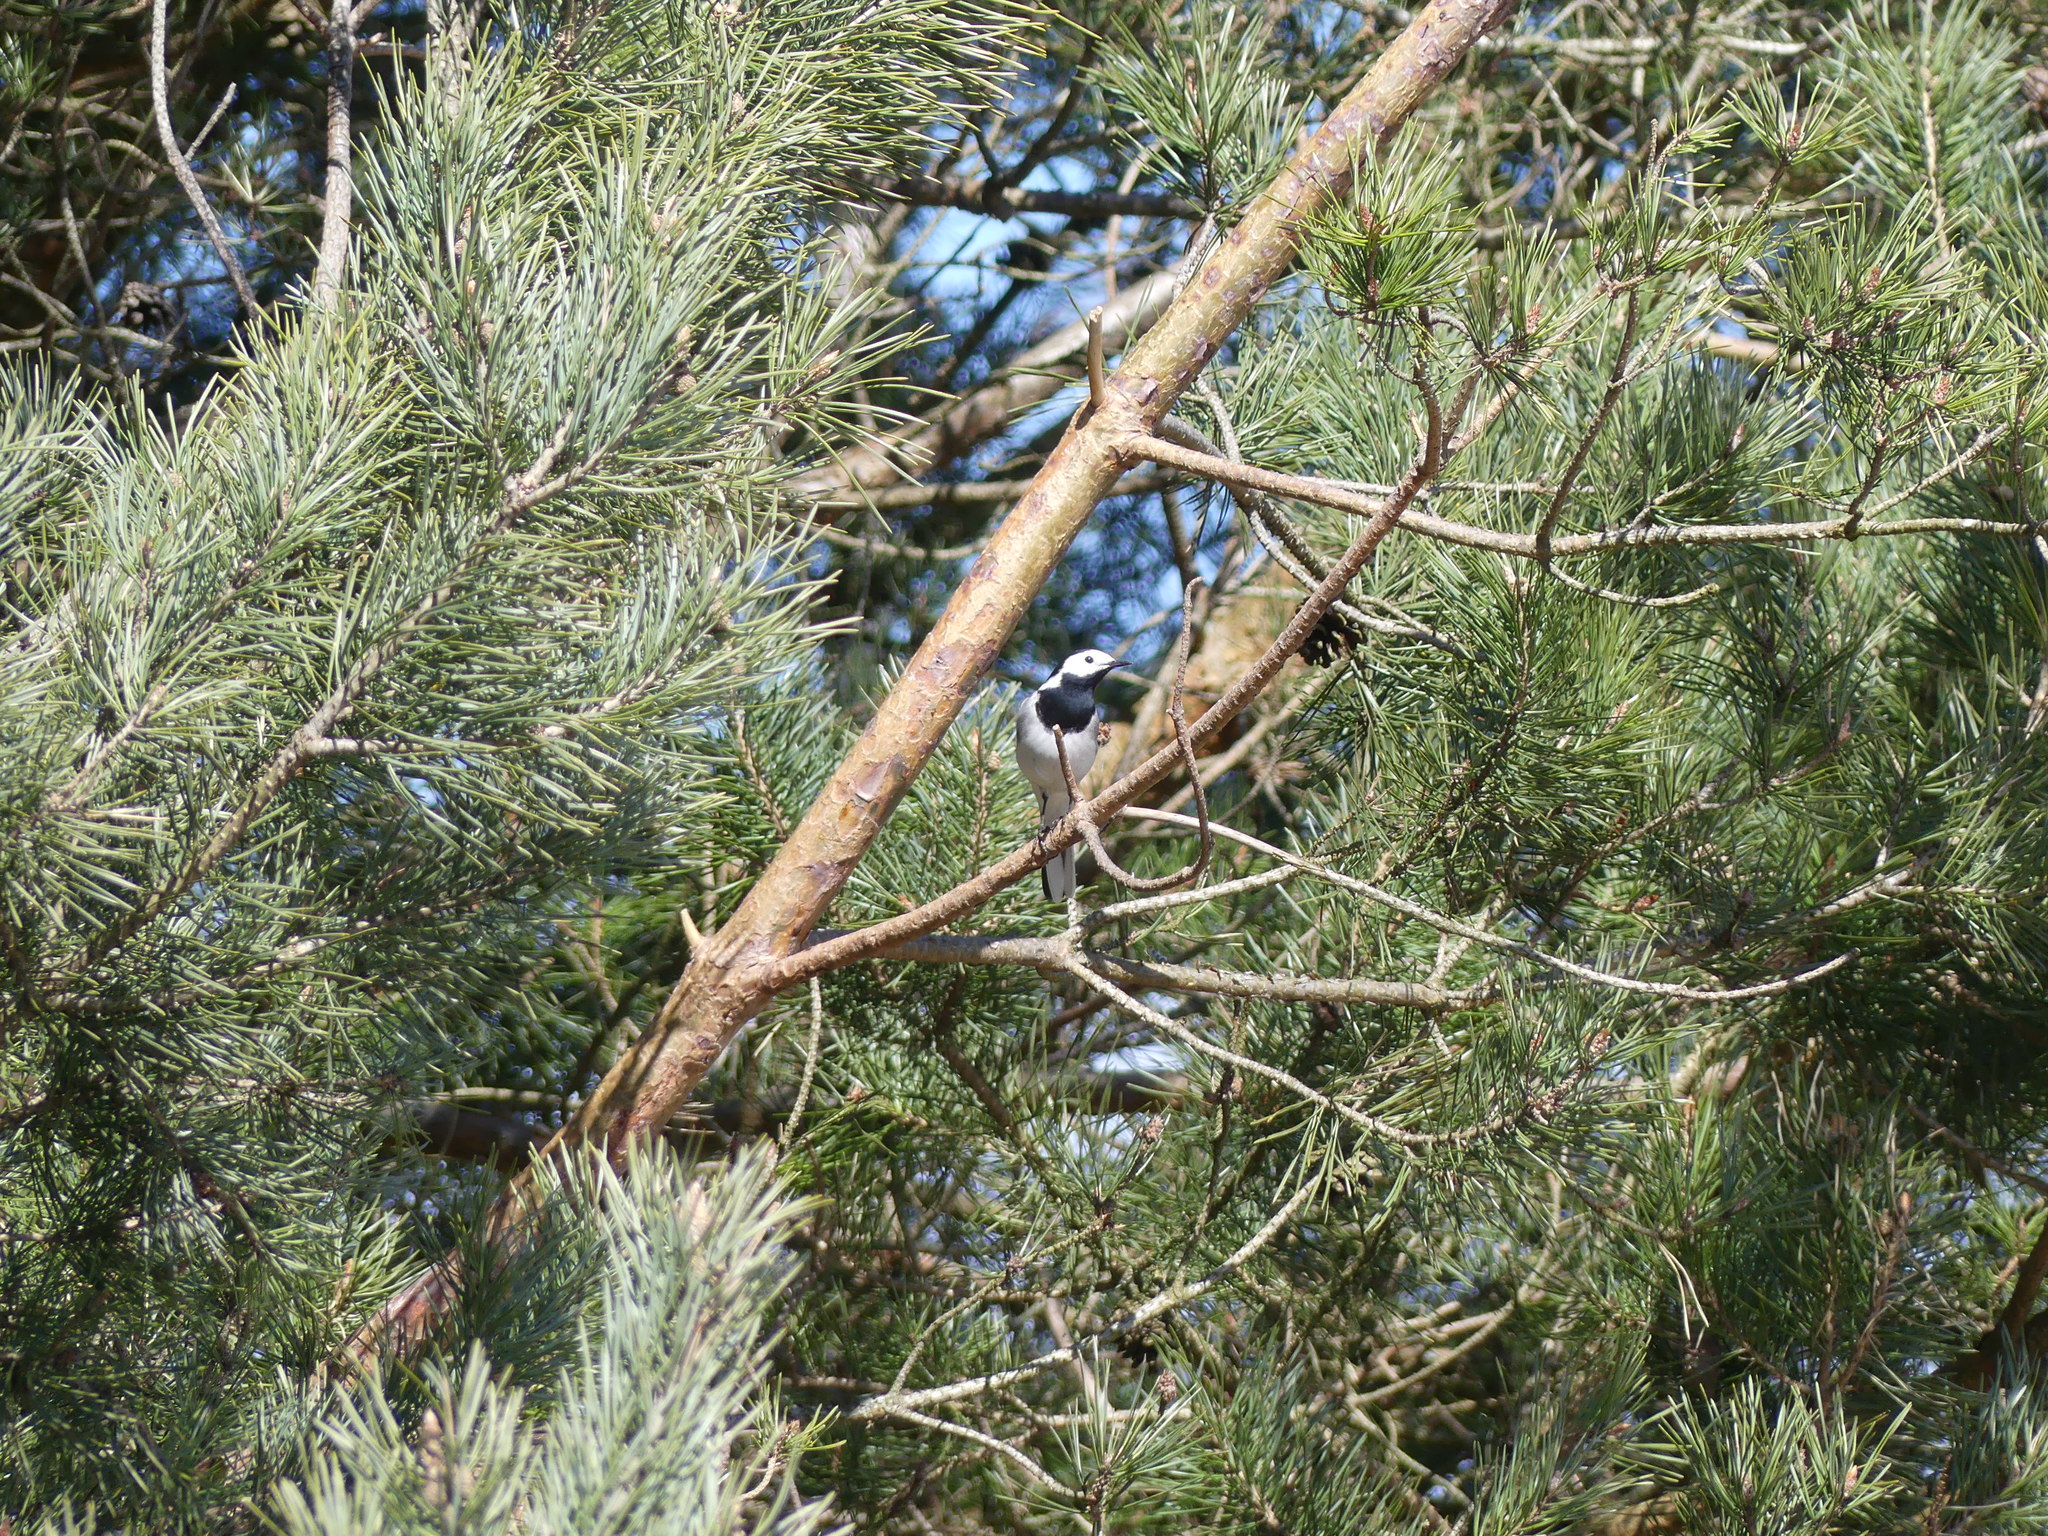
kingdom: Animalia
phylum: Chordata
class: Aves
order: Passeriformes
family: Motacillidae
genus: Motacilla
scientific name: Motacilla alba
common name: White wagtail
